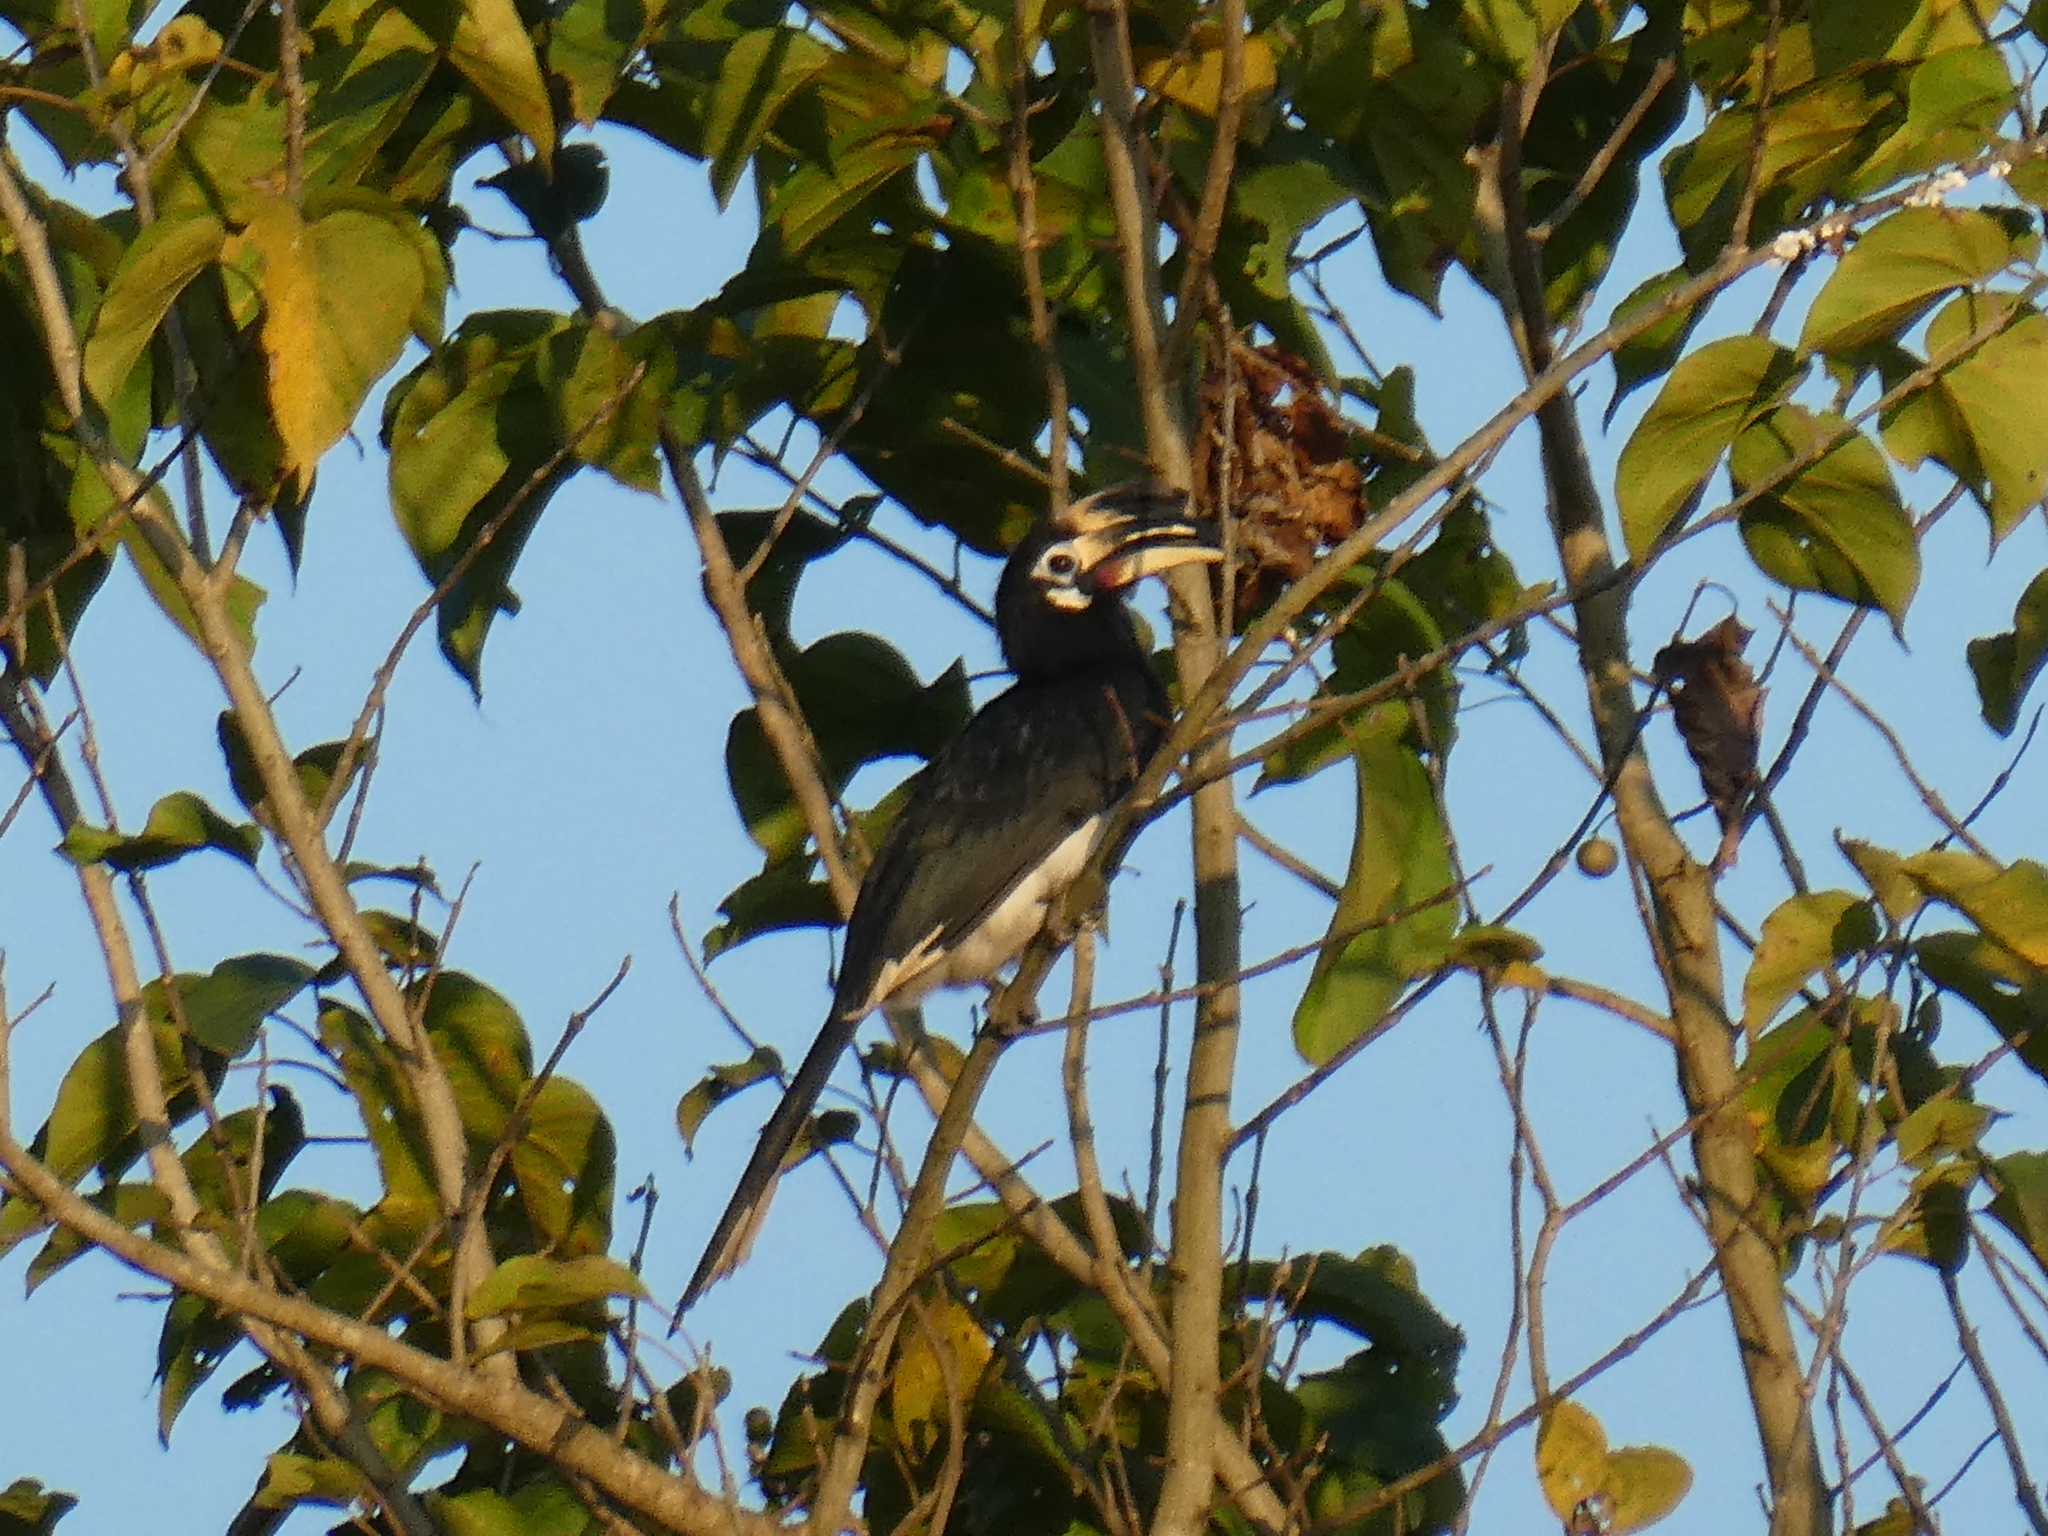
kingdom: Animalia
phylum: Chordata
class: Aves
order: Bucerotiformes
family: Bucerotidae
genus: Anthracoceros
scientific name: Anthracoceros albirostris
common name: Oriental pied-hornbill
